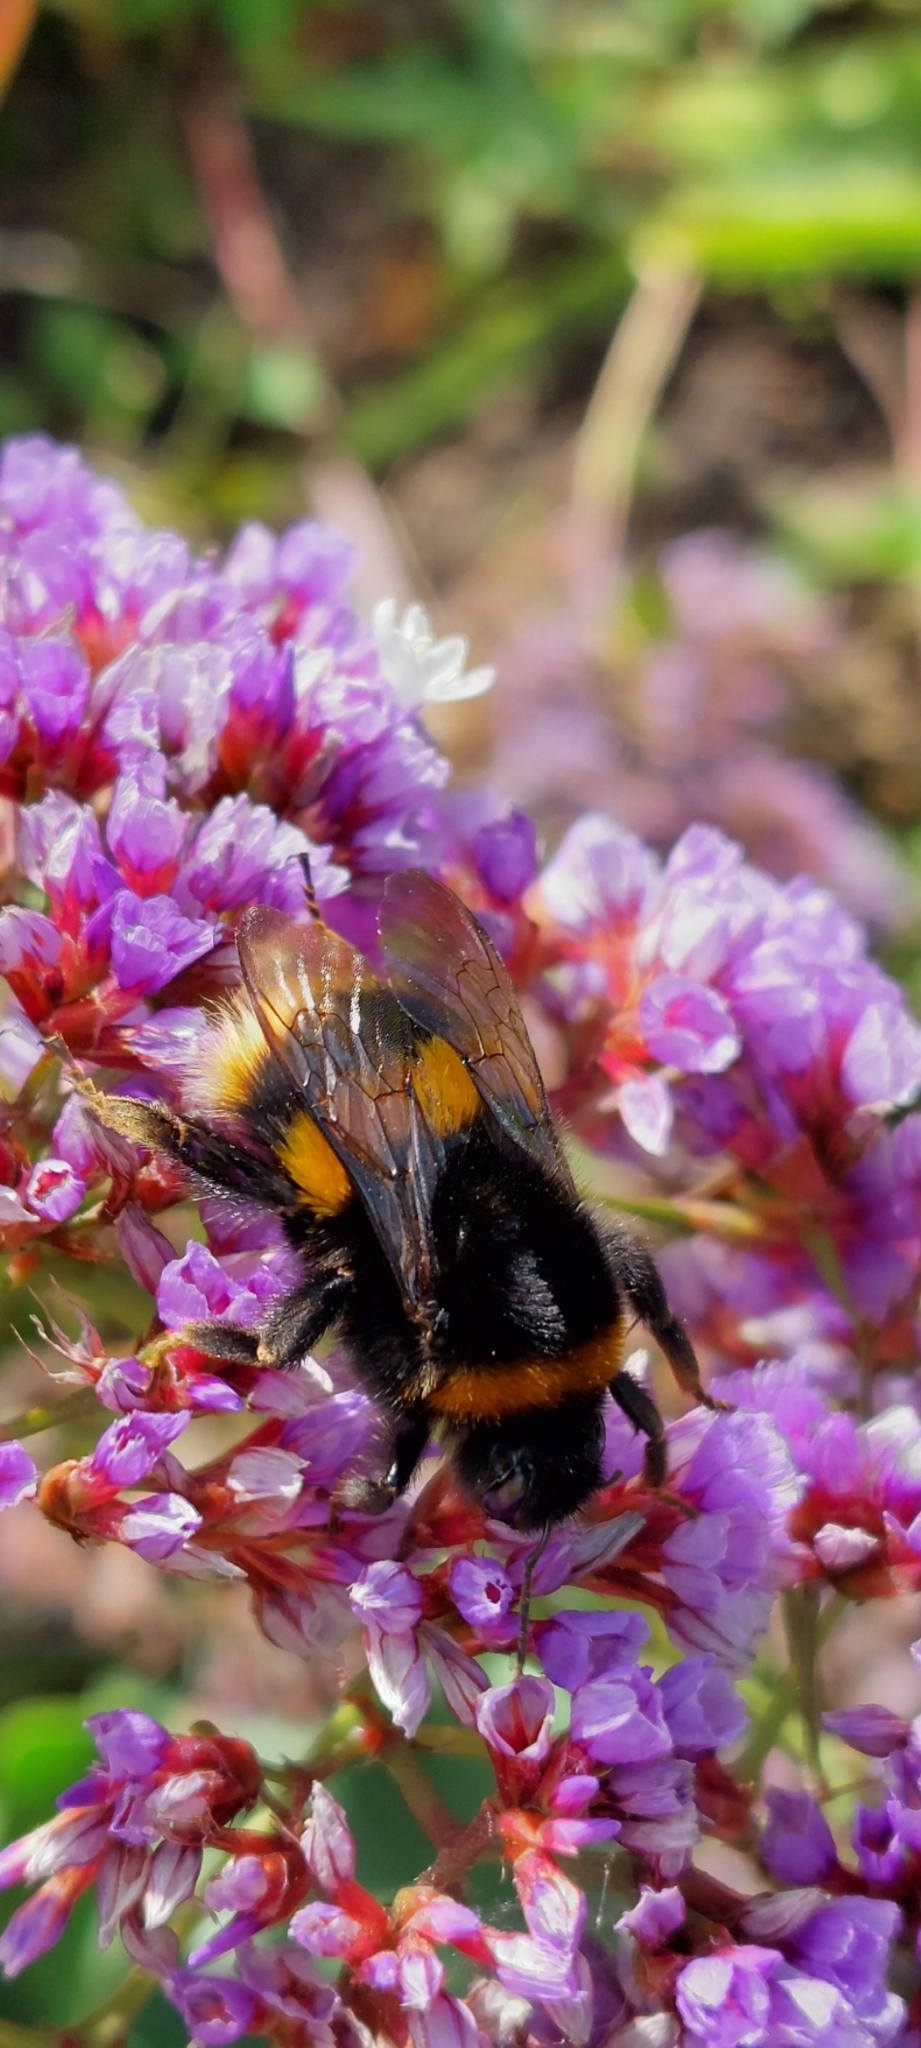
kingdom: Animalia
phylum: Arthropoda
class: Insecta
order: Hymenoptera
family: Apidae
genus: Bombus
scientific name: Bombus terrestris
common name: Buff-tailed bumblebee
